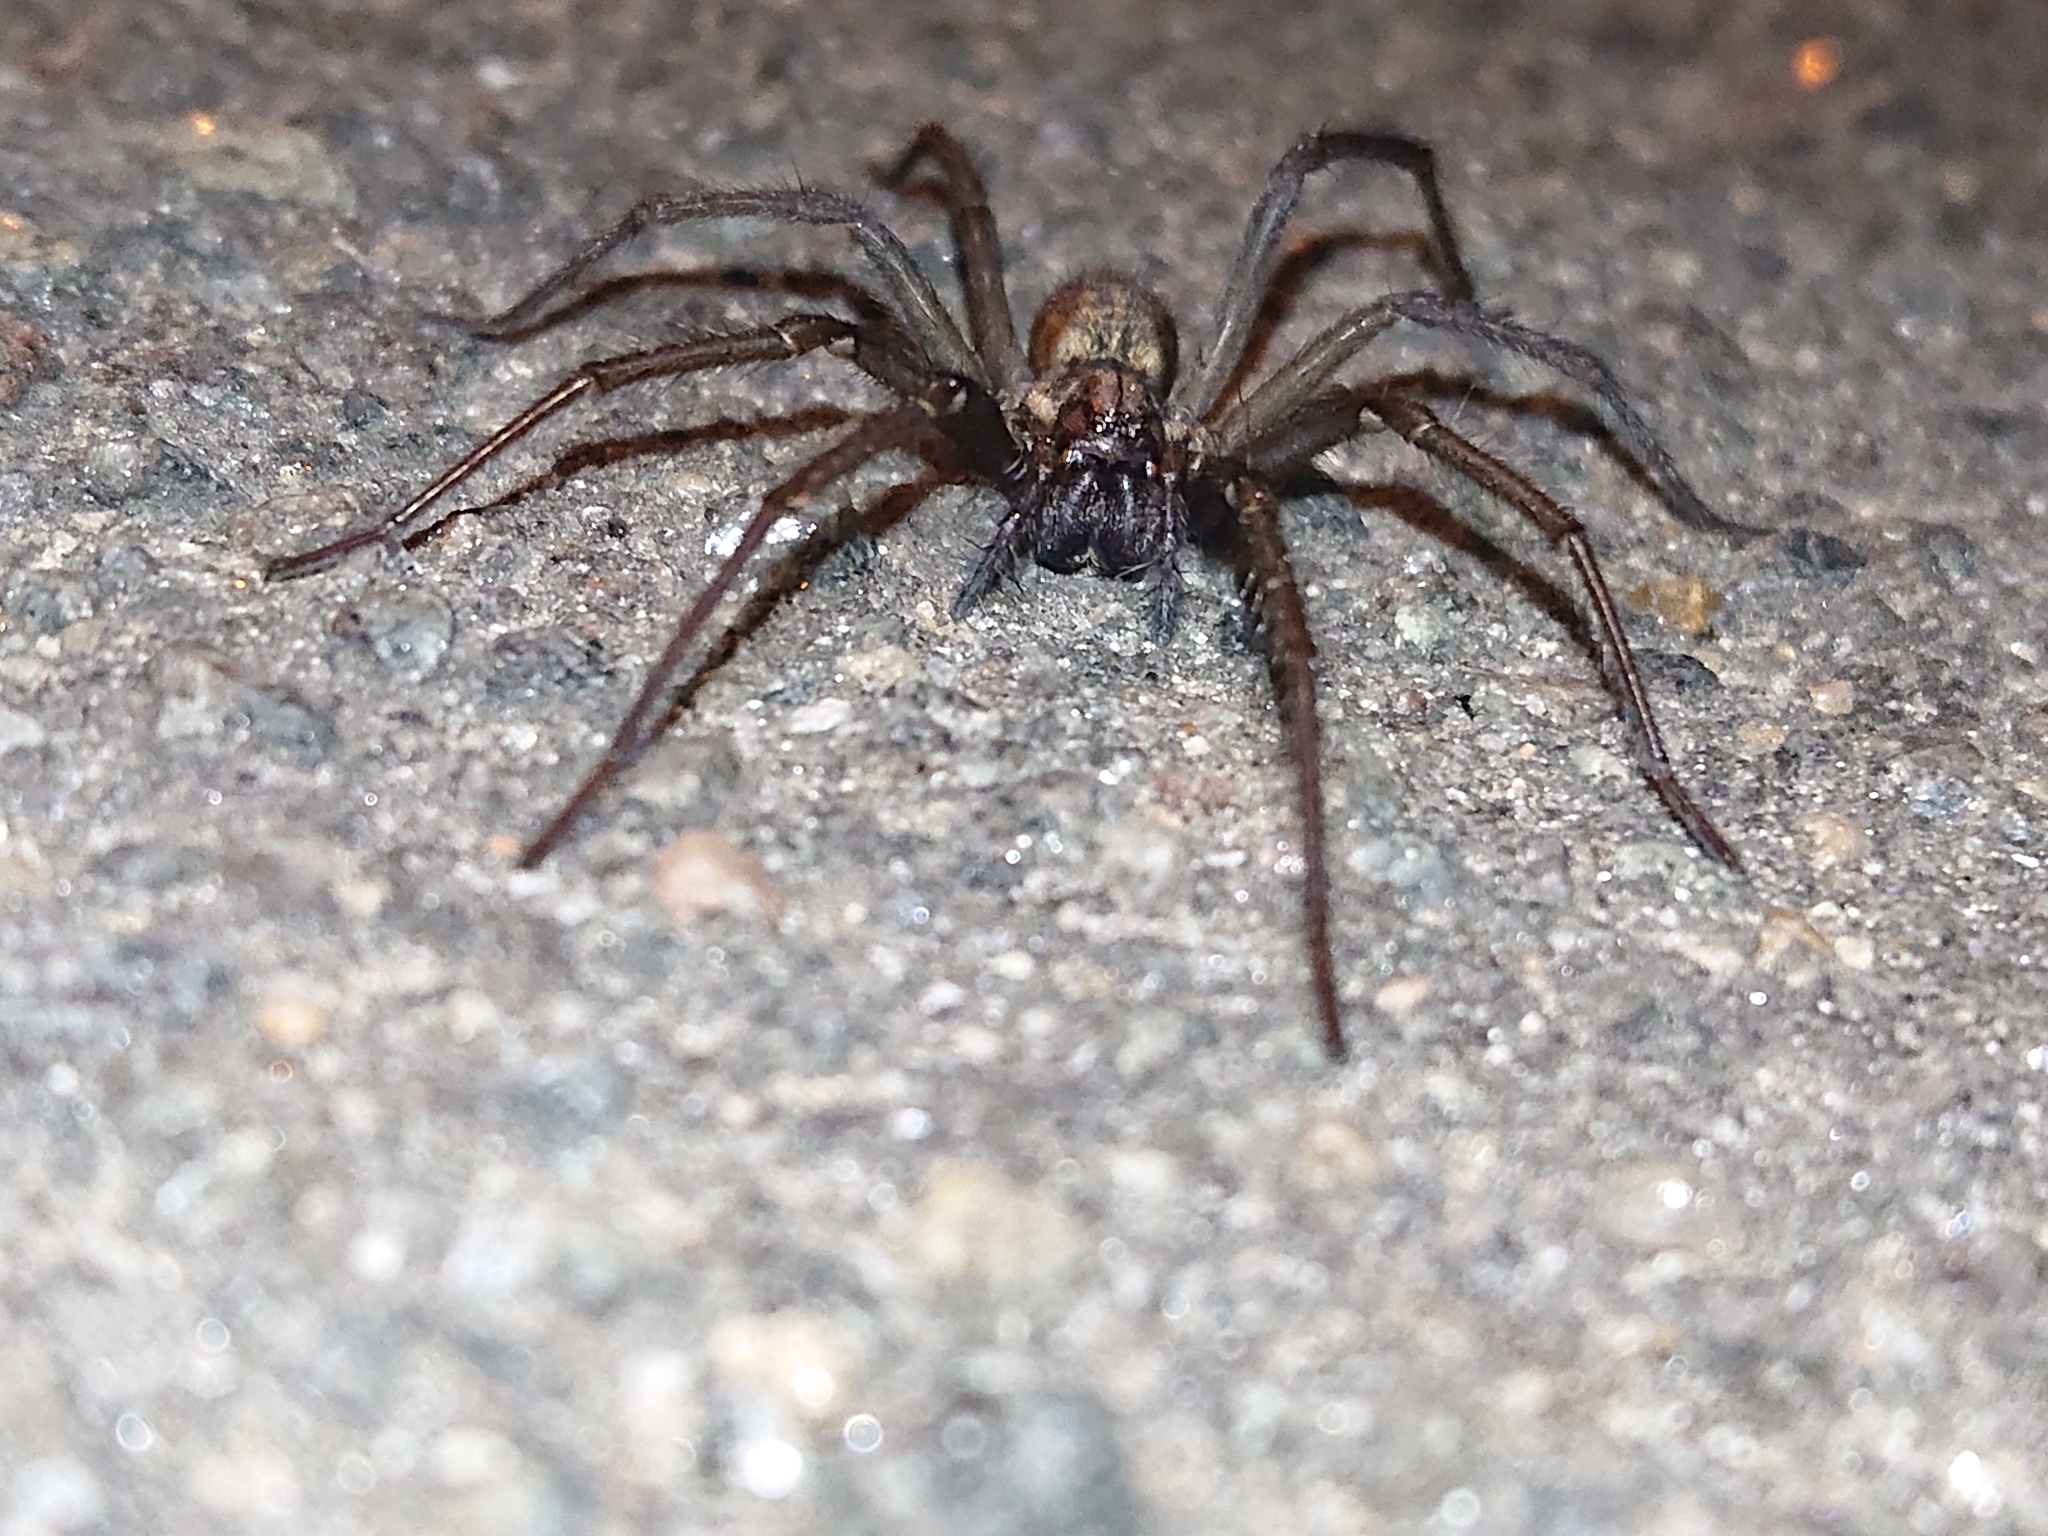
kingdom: Animalia
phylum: Arthropoda
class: Arachnida
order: Araneae
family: Agelenidae
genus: Eratigena
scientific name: Eratigena atrica
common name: Giant house spider
